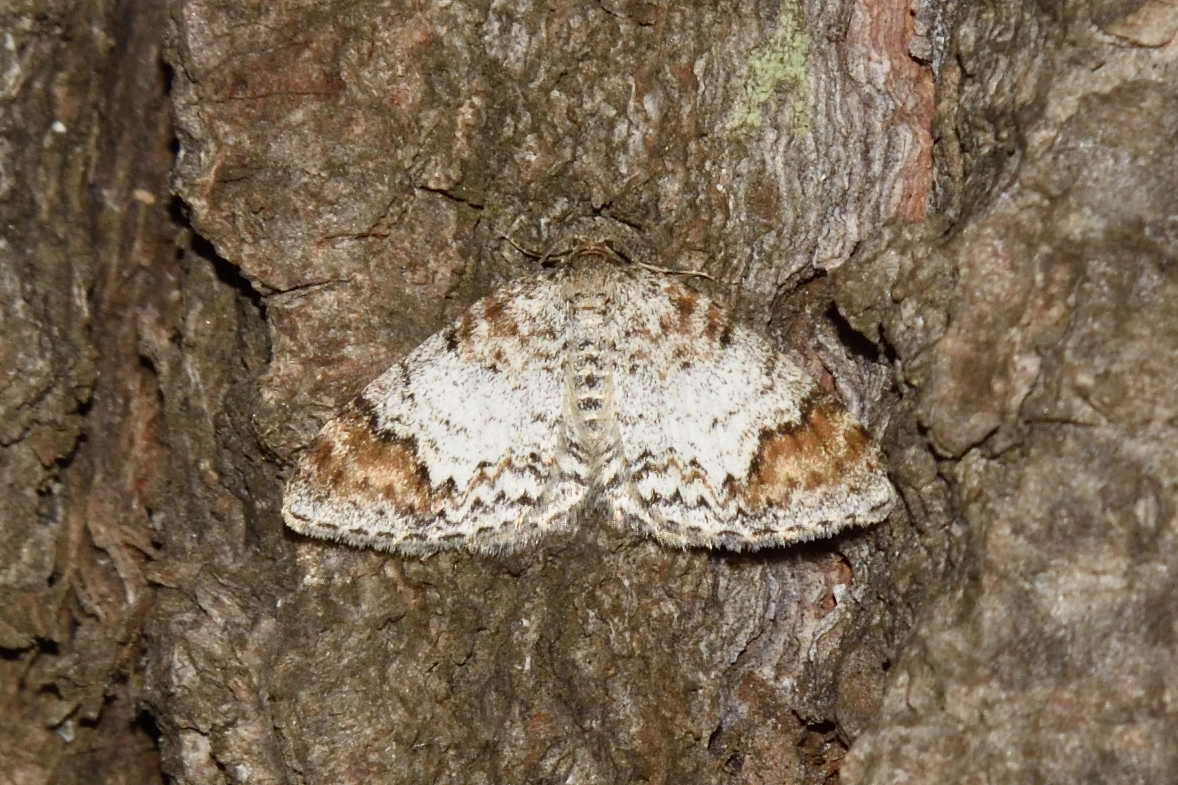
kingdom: Animalia
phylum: Arthropoda
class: Insecta
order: Lepidoptera
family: Geometridae
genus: Venusia
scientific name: Venusia blomeri
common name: Blomer's rivulet
